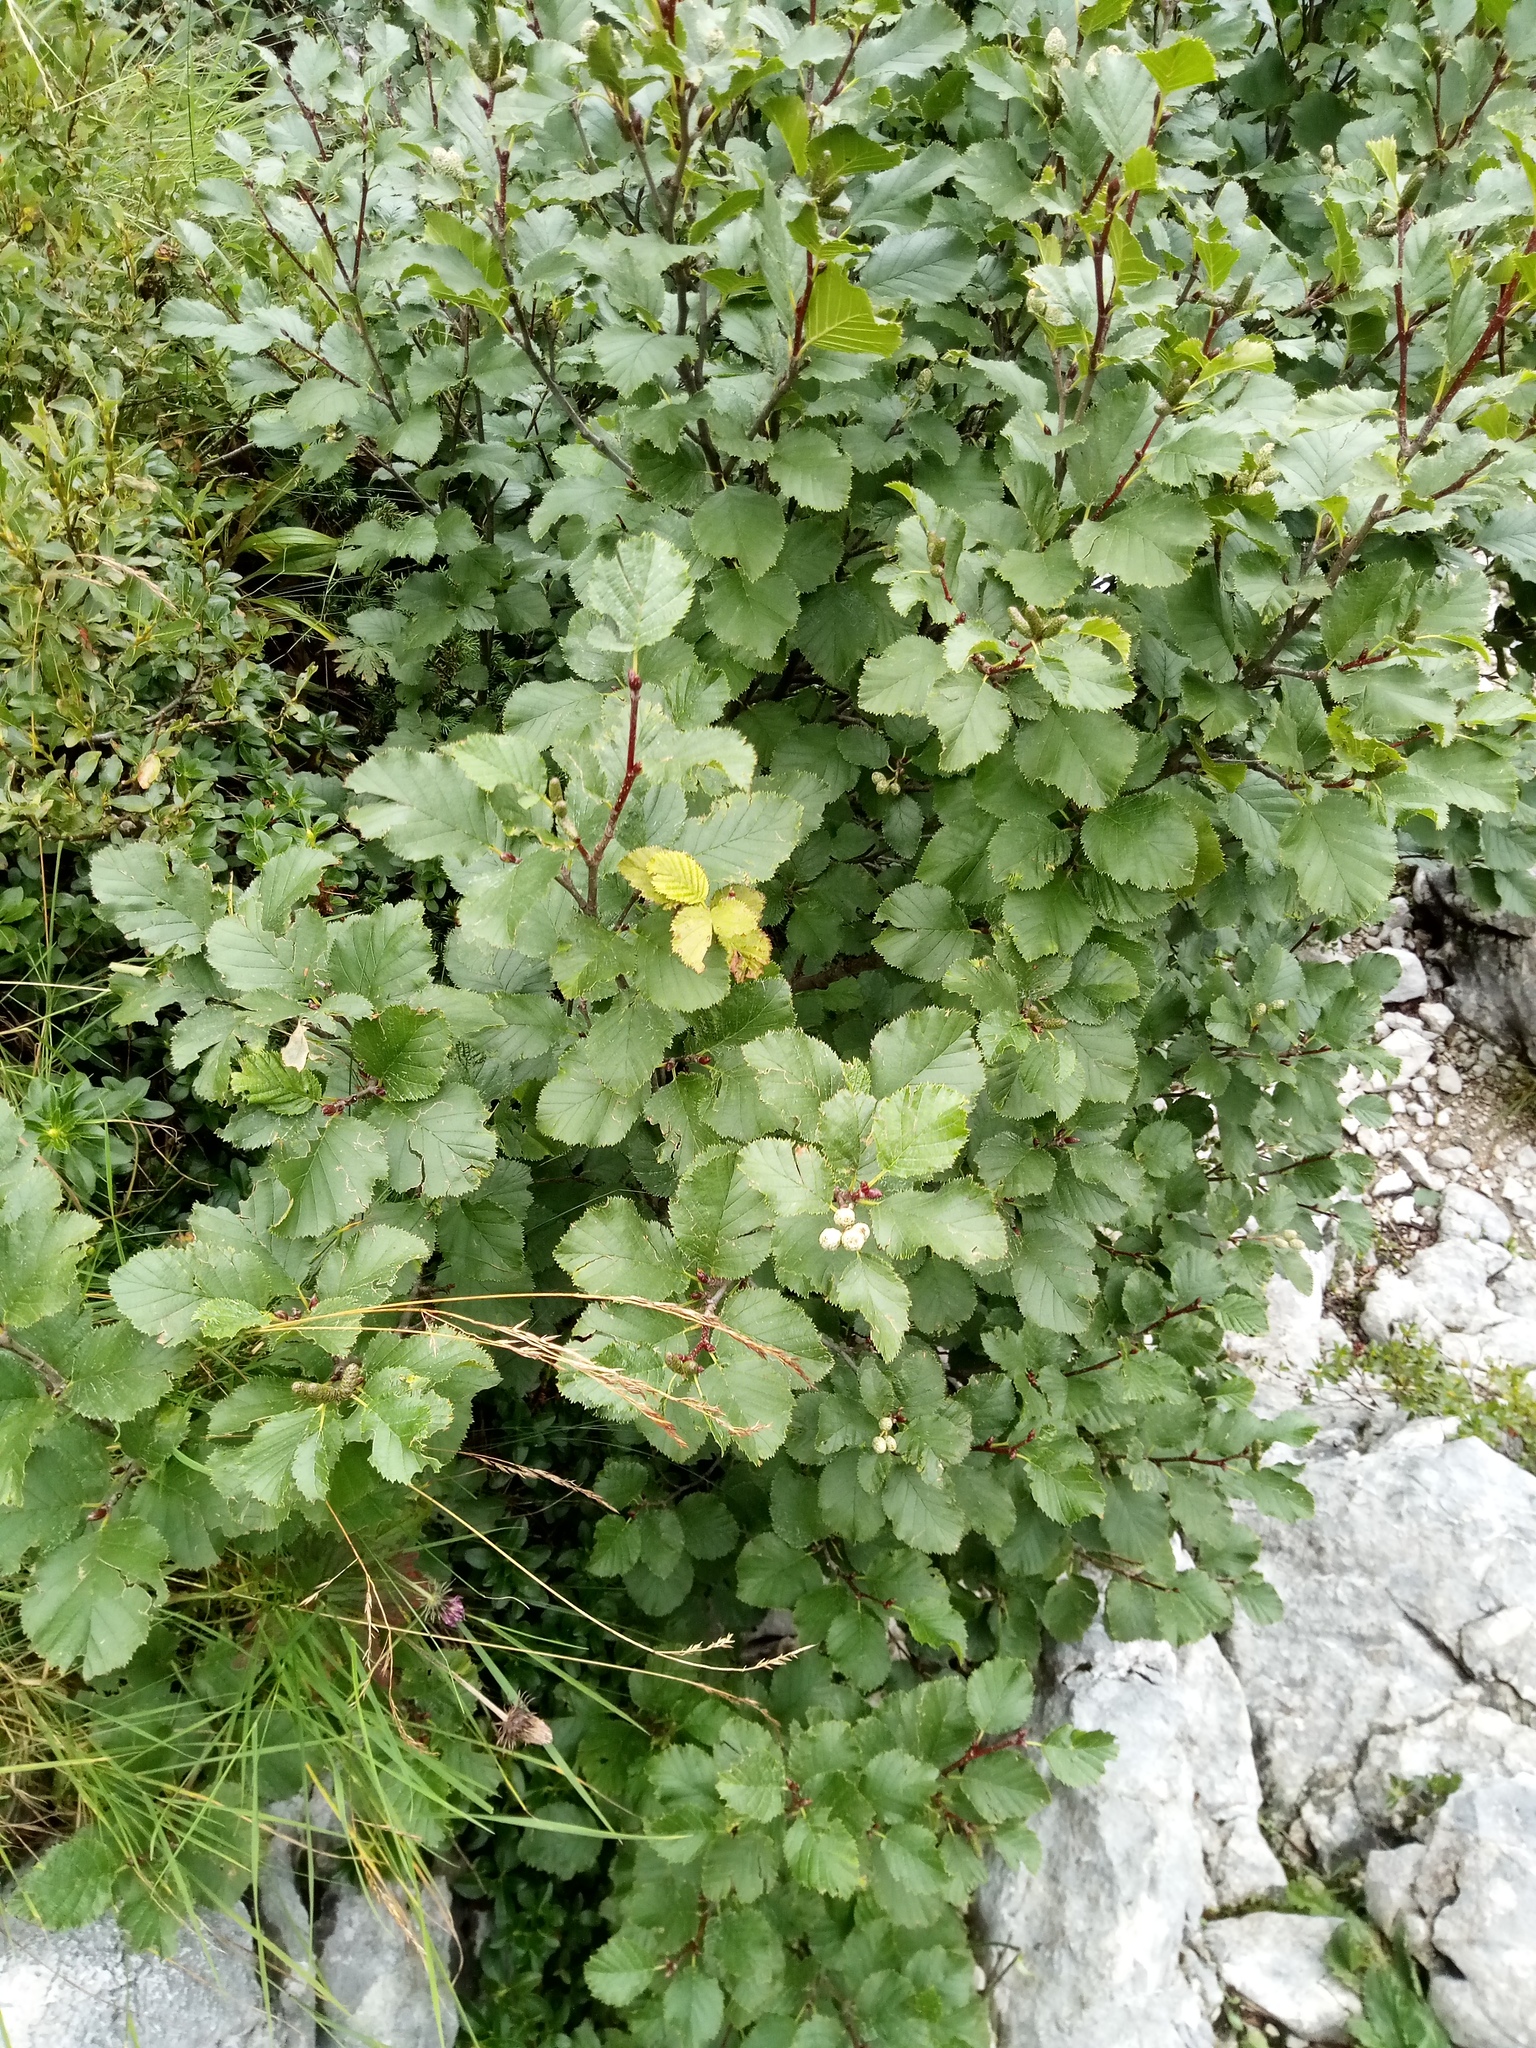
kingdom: Plantae
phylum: Tracheophyta
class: Magnoliopsida
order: Fagales
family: Betulaceae
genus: Alnus
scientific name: Alnus alnobetula
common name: Green alder
